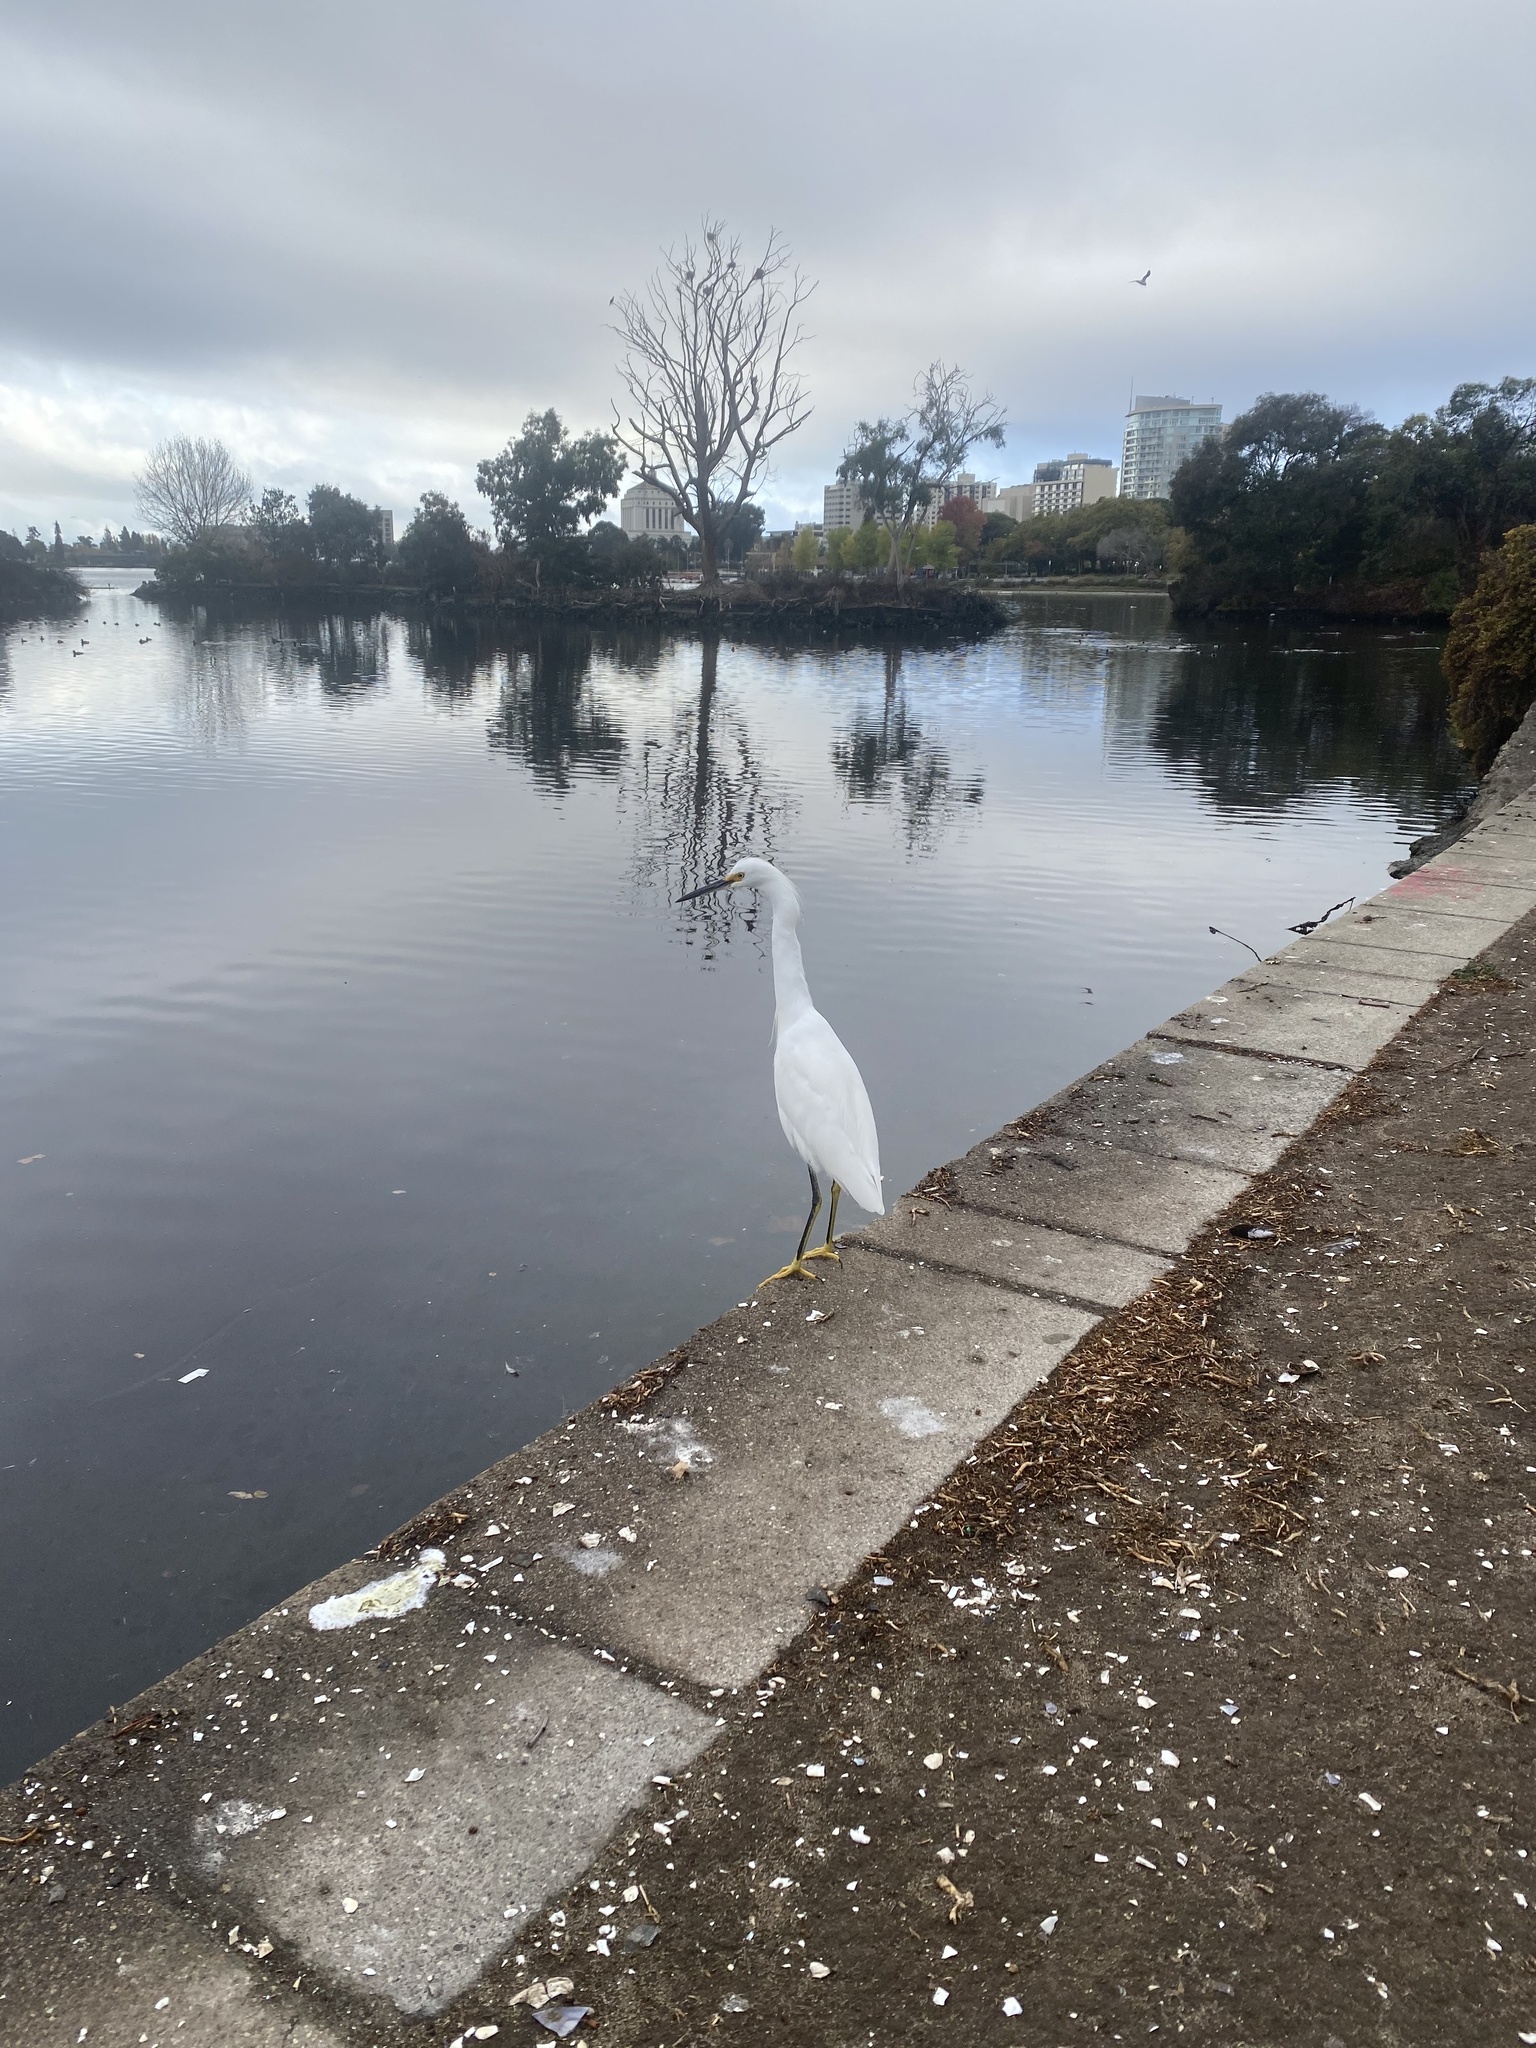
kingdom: Animalia
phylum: Chordata
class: Aves
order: Pelecaniformes
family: Ardeidae
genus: Egretta
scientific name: Egretta thula
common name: Snowy egret
